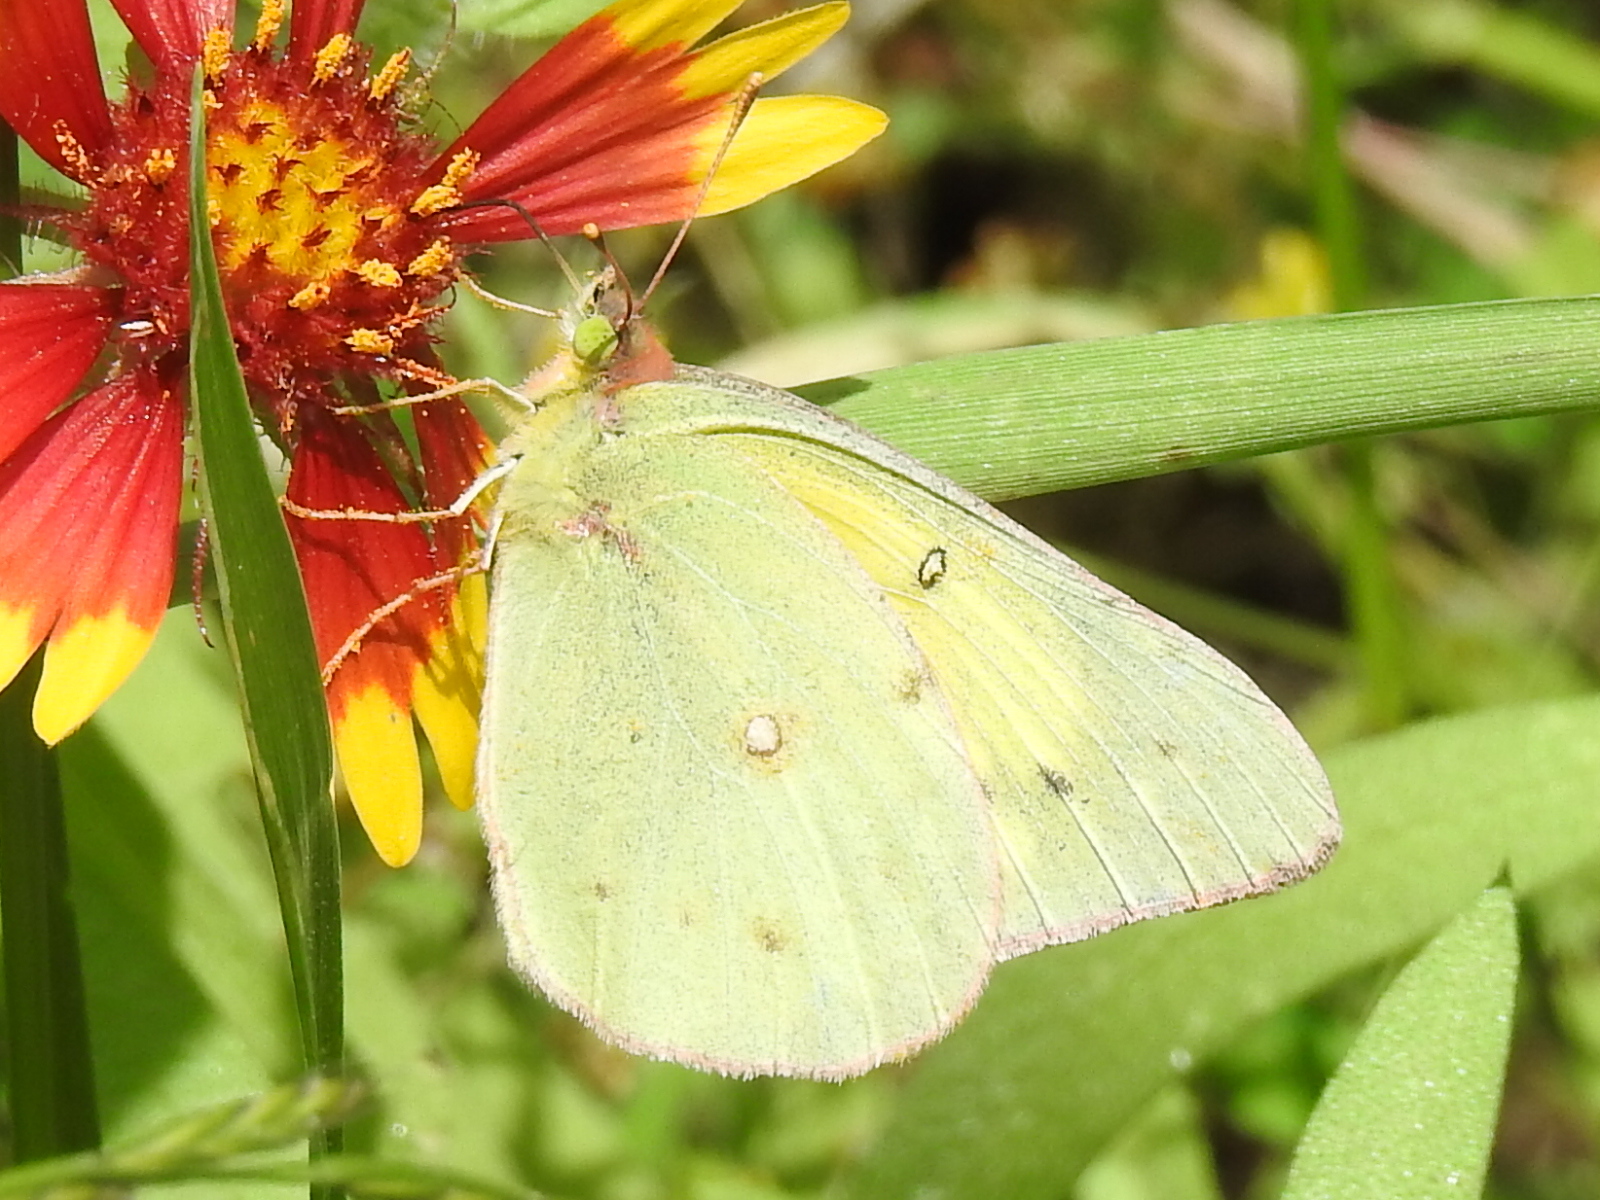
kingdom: Animalia
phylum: Arthropoda
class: Insecta
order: Lepidoptera
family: Pieridae
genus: Colias
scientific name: Colias eurytheme
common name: Alfalfa butterfly
